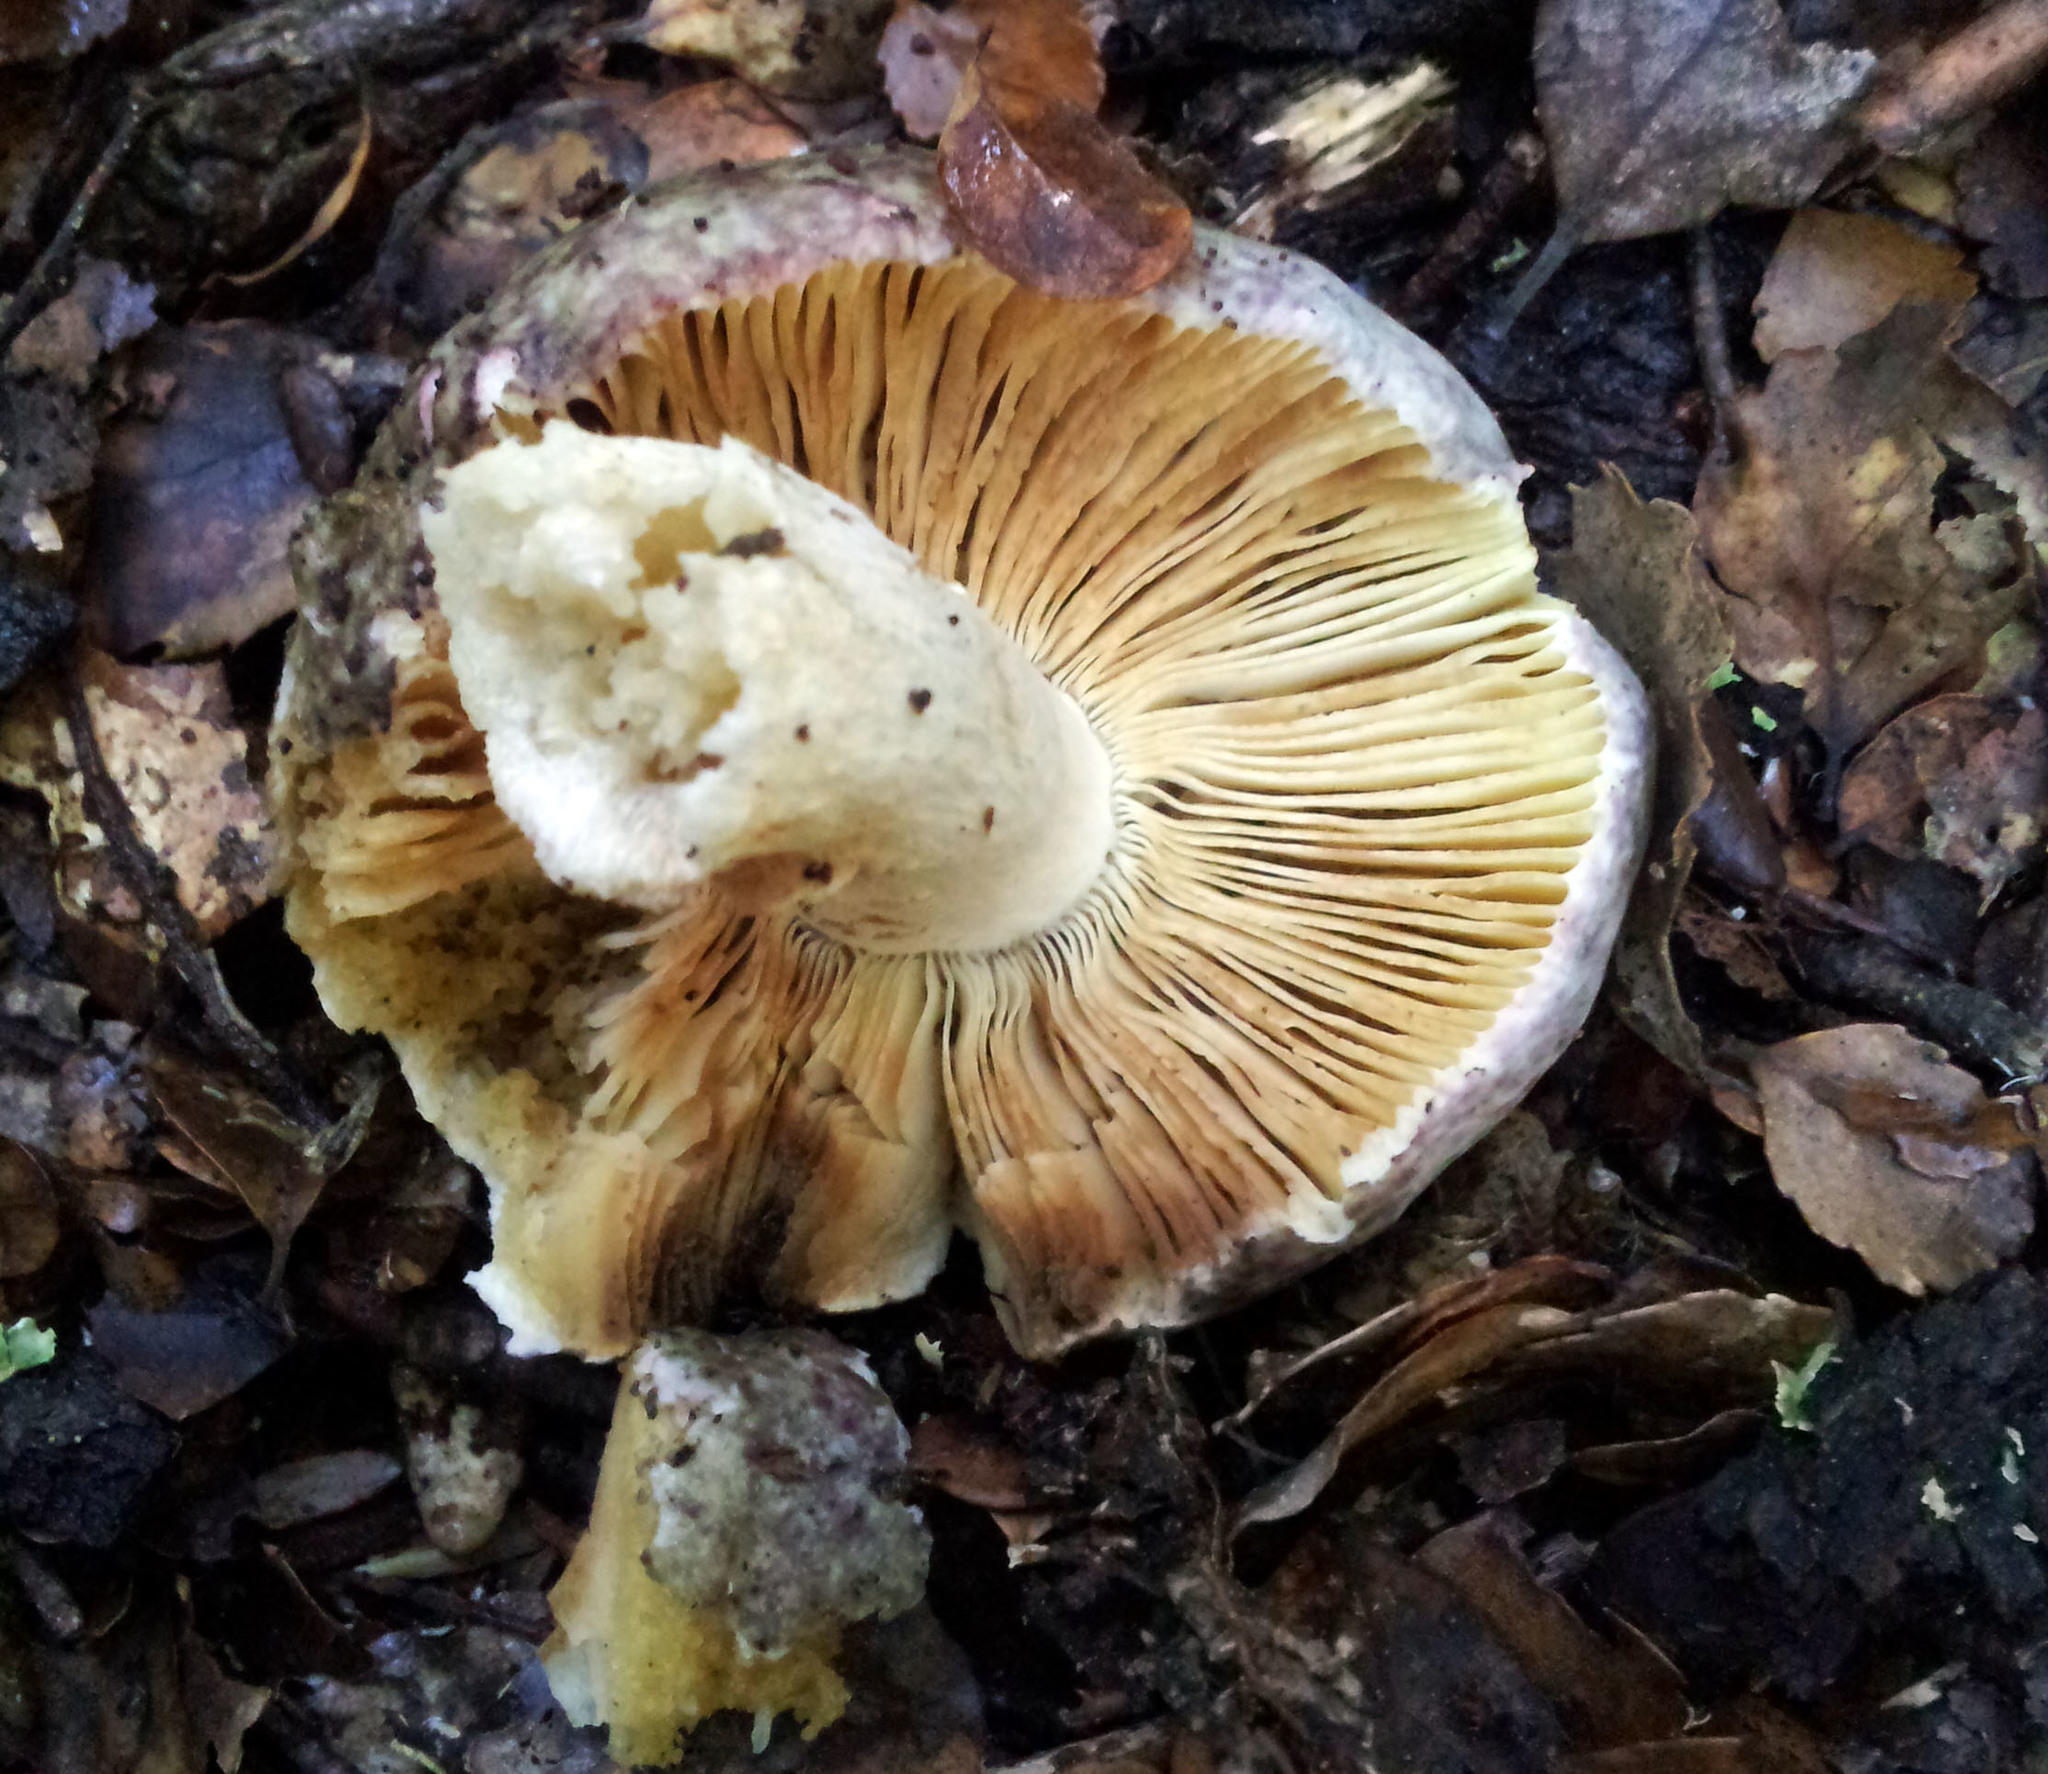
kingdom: Fungi
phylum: Basidiomycota
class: Agaricomycetes
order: Russulales
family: Russulaceae
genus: Russula
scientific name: Russula umerensis
